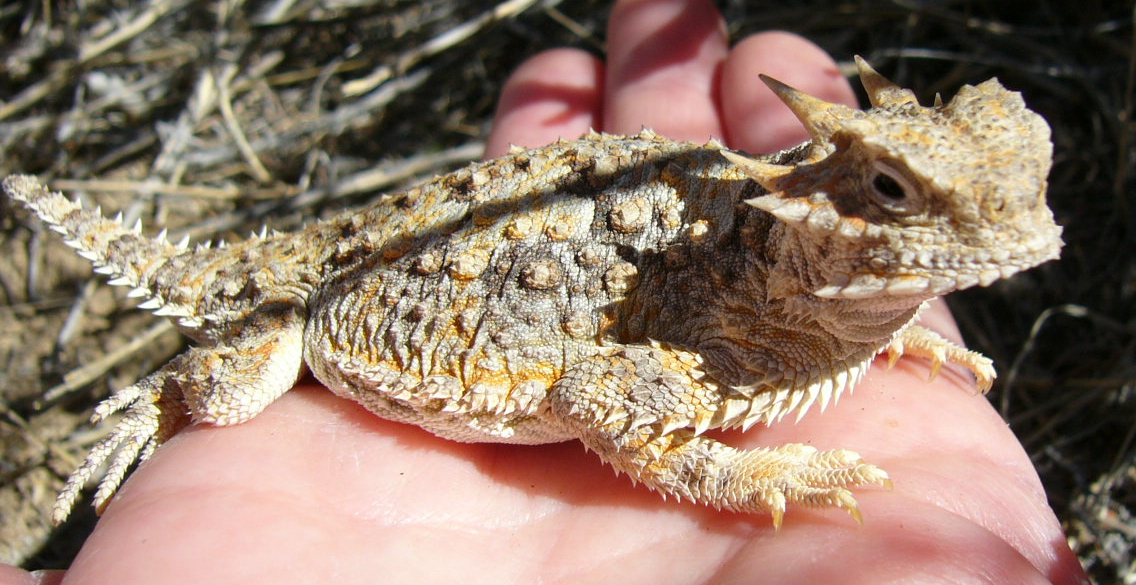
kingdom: Animalia
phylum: Chordata
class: Squamata
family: Phrynosomatidae
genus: Phrynosoma
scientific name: Phrynosoma platyrhinos
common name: Desert horned lizard
